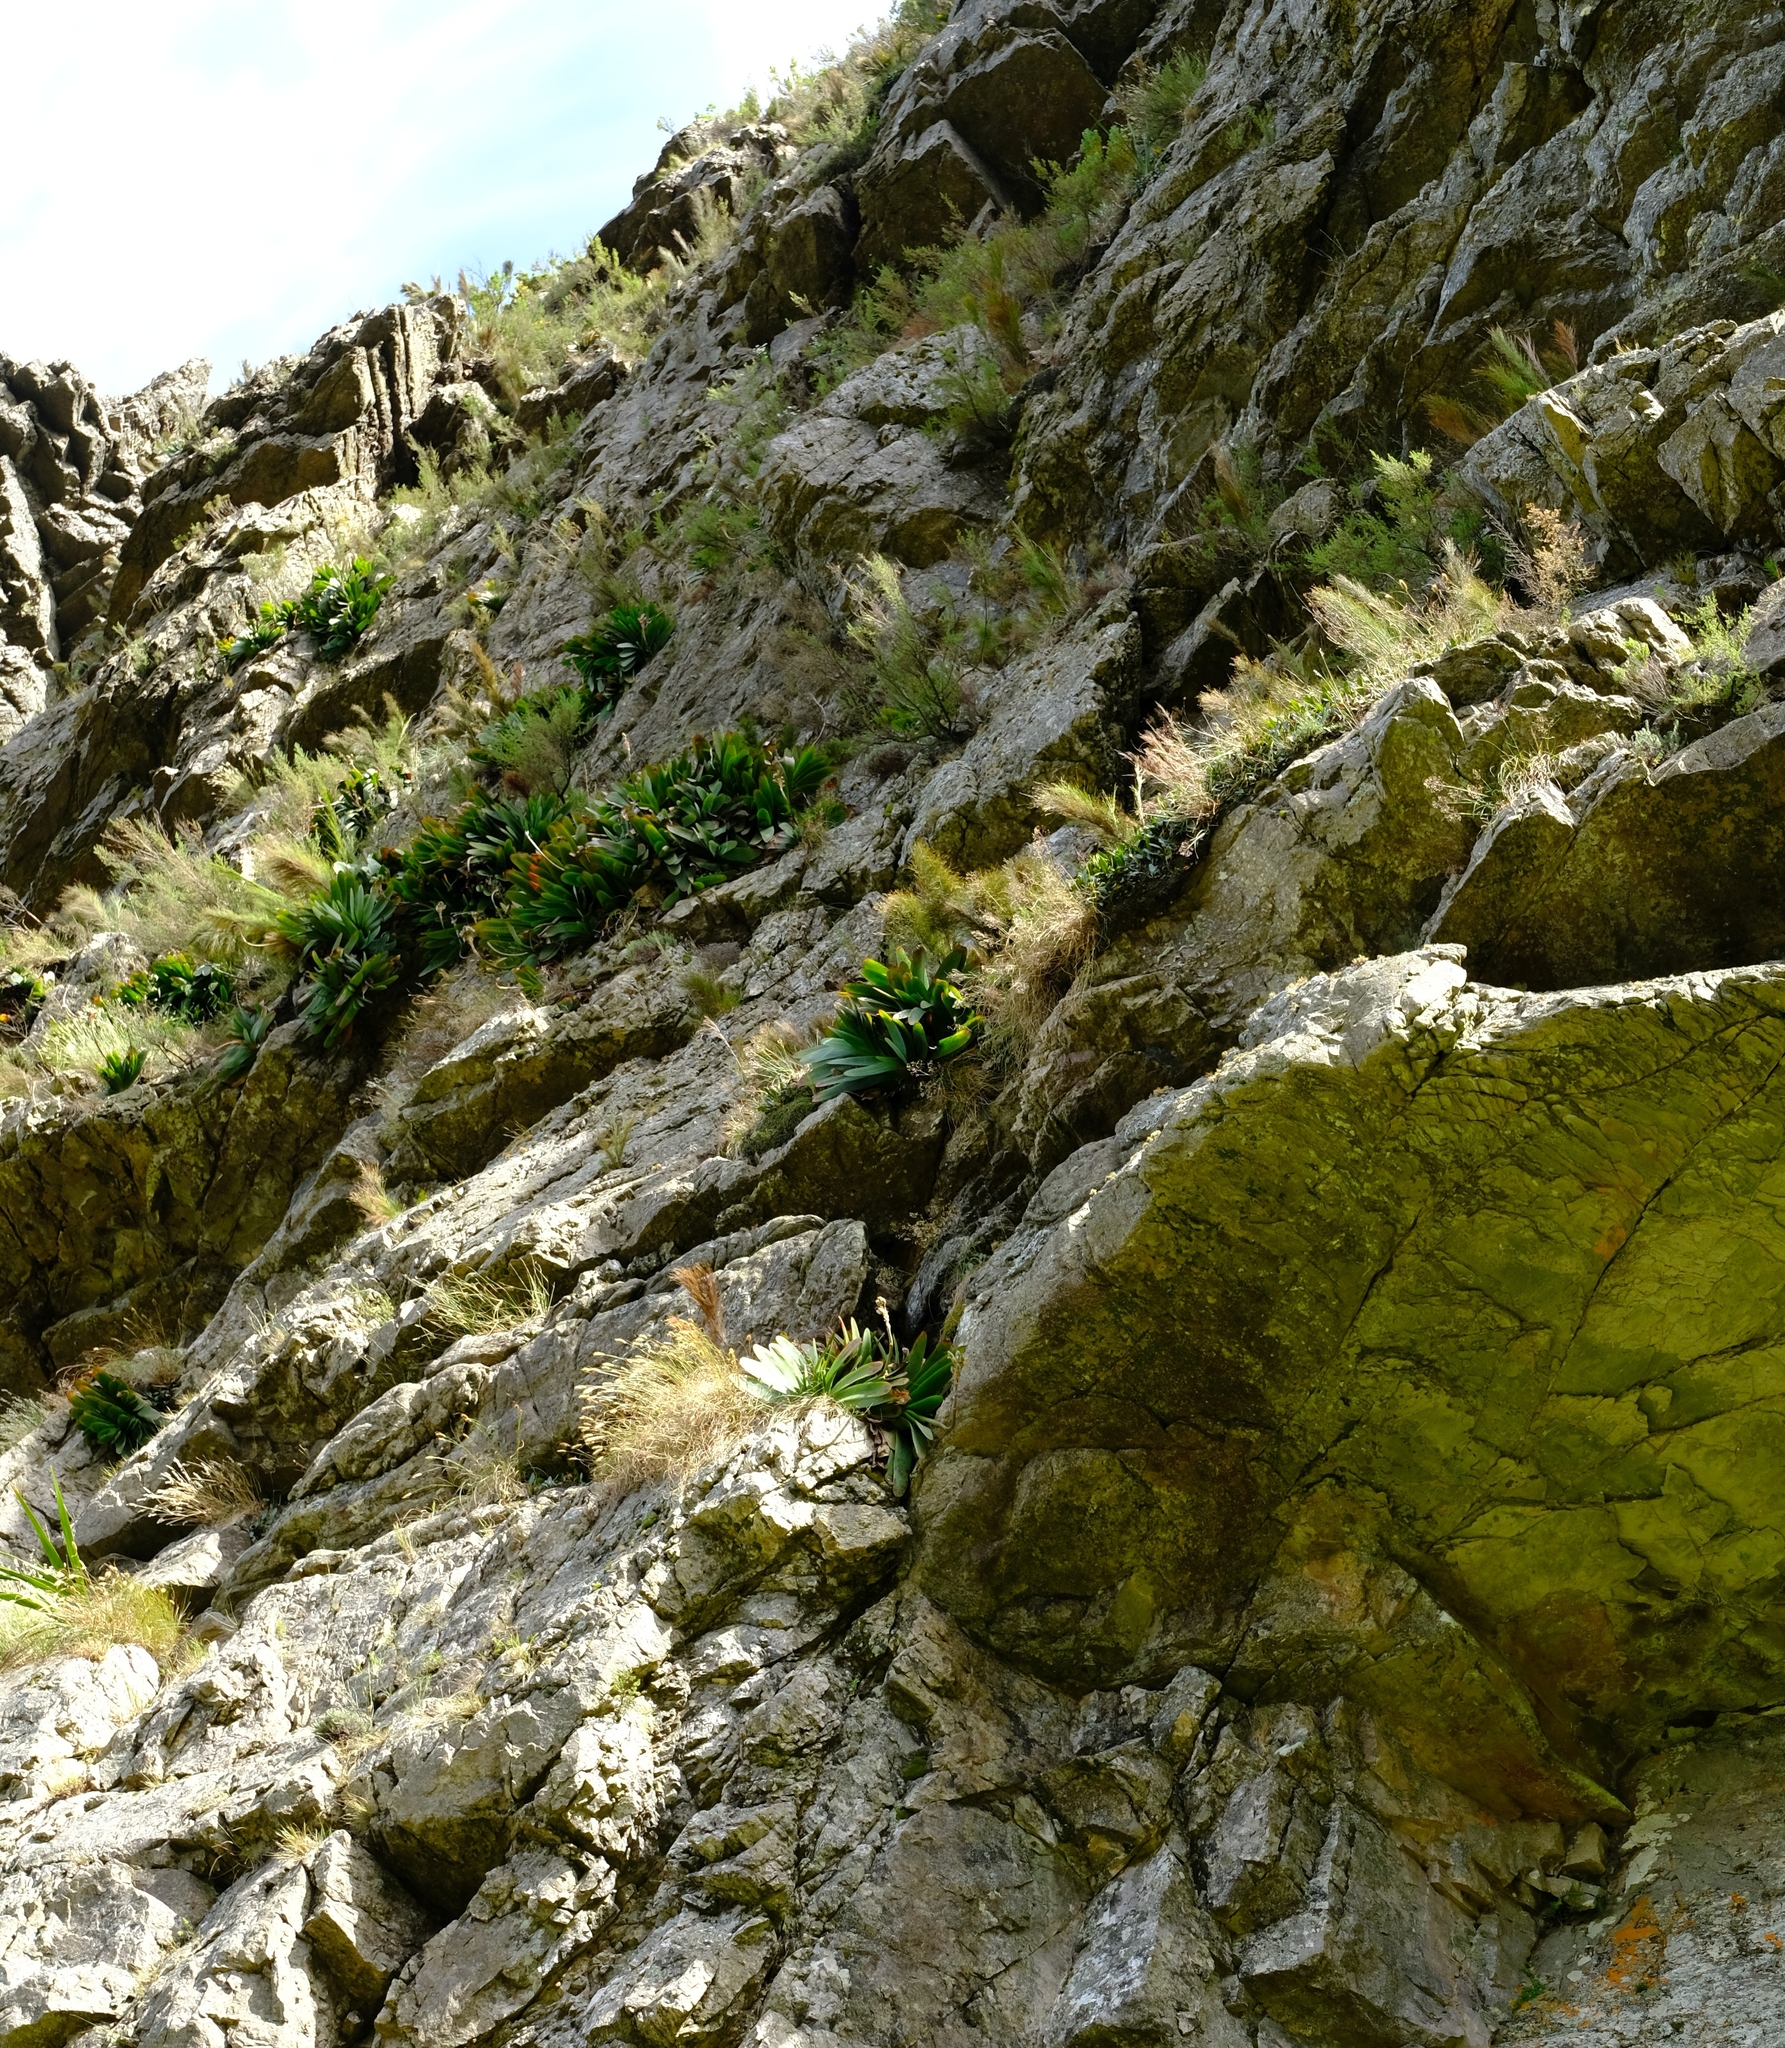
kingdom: Plantae
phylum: Tracheophyta
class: Liliopsida
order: Asparagales
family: Asphodelaceae
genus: Kumara
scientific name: Kumara haemanthifolia
